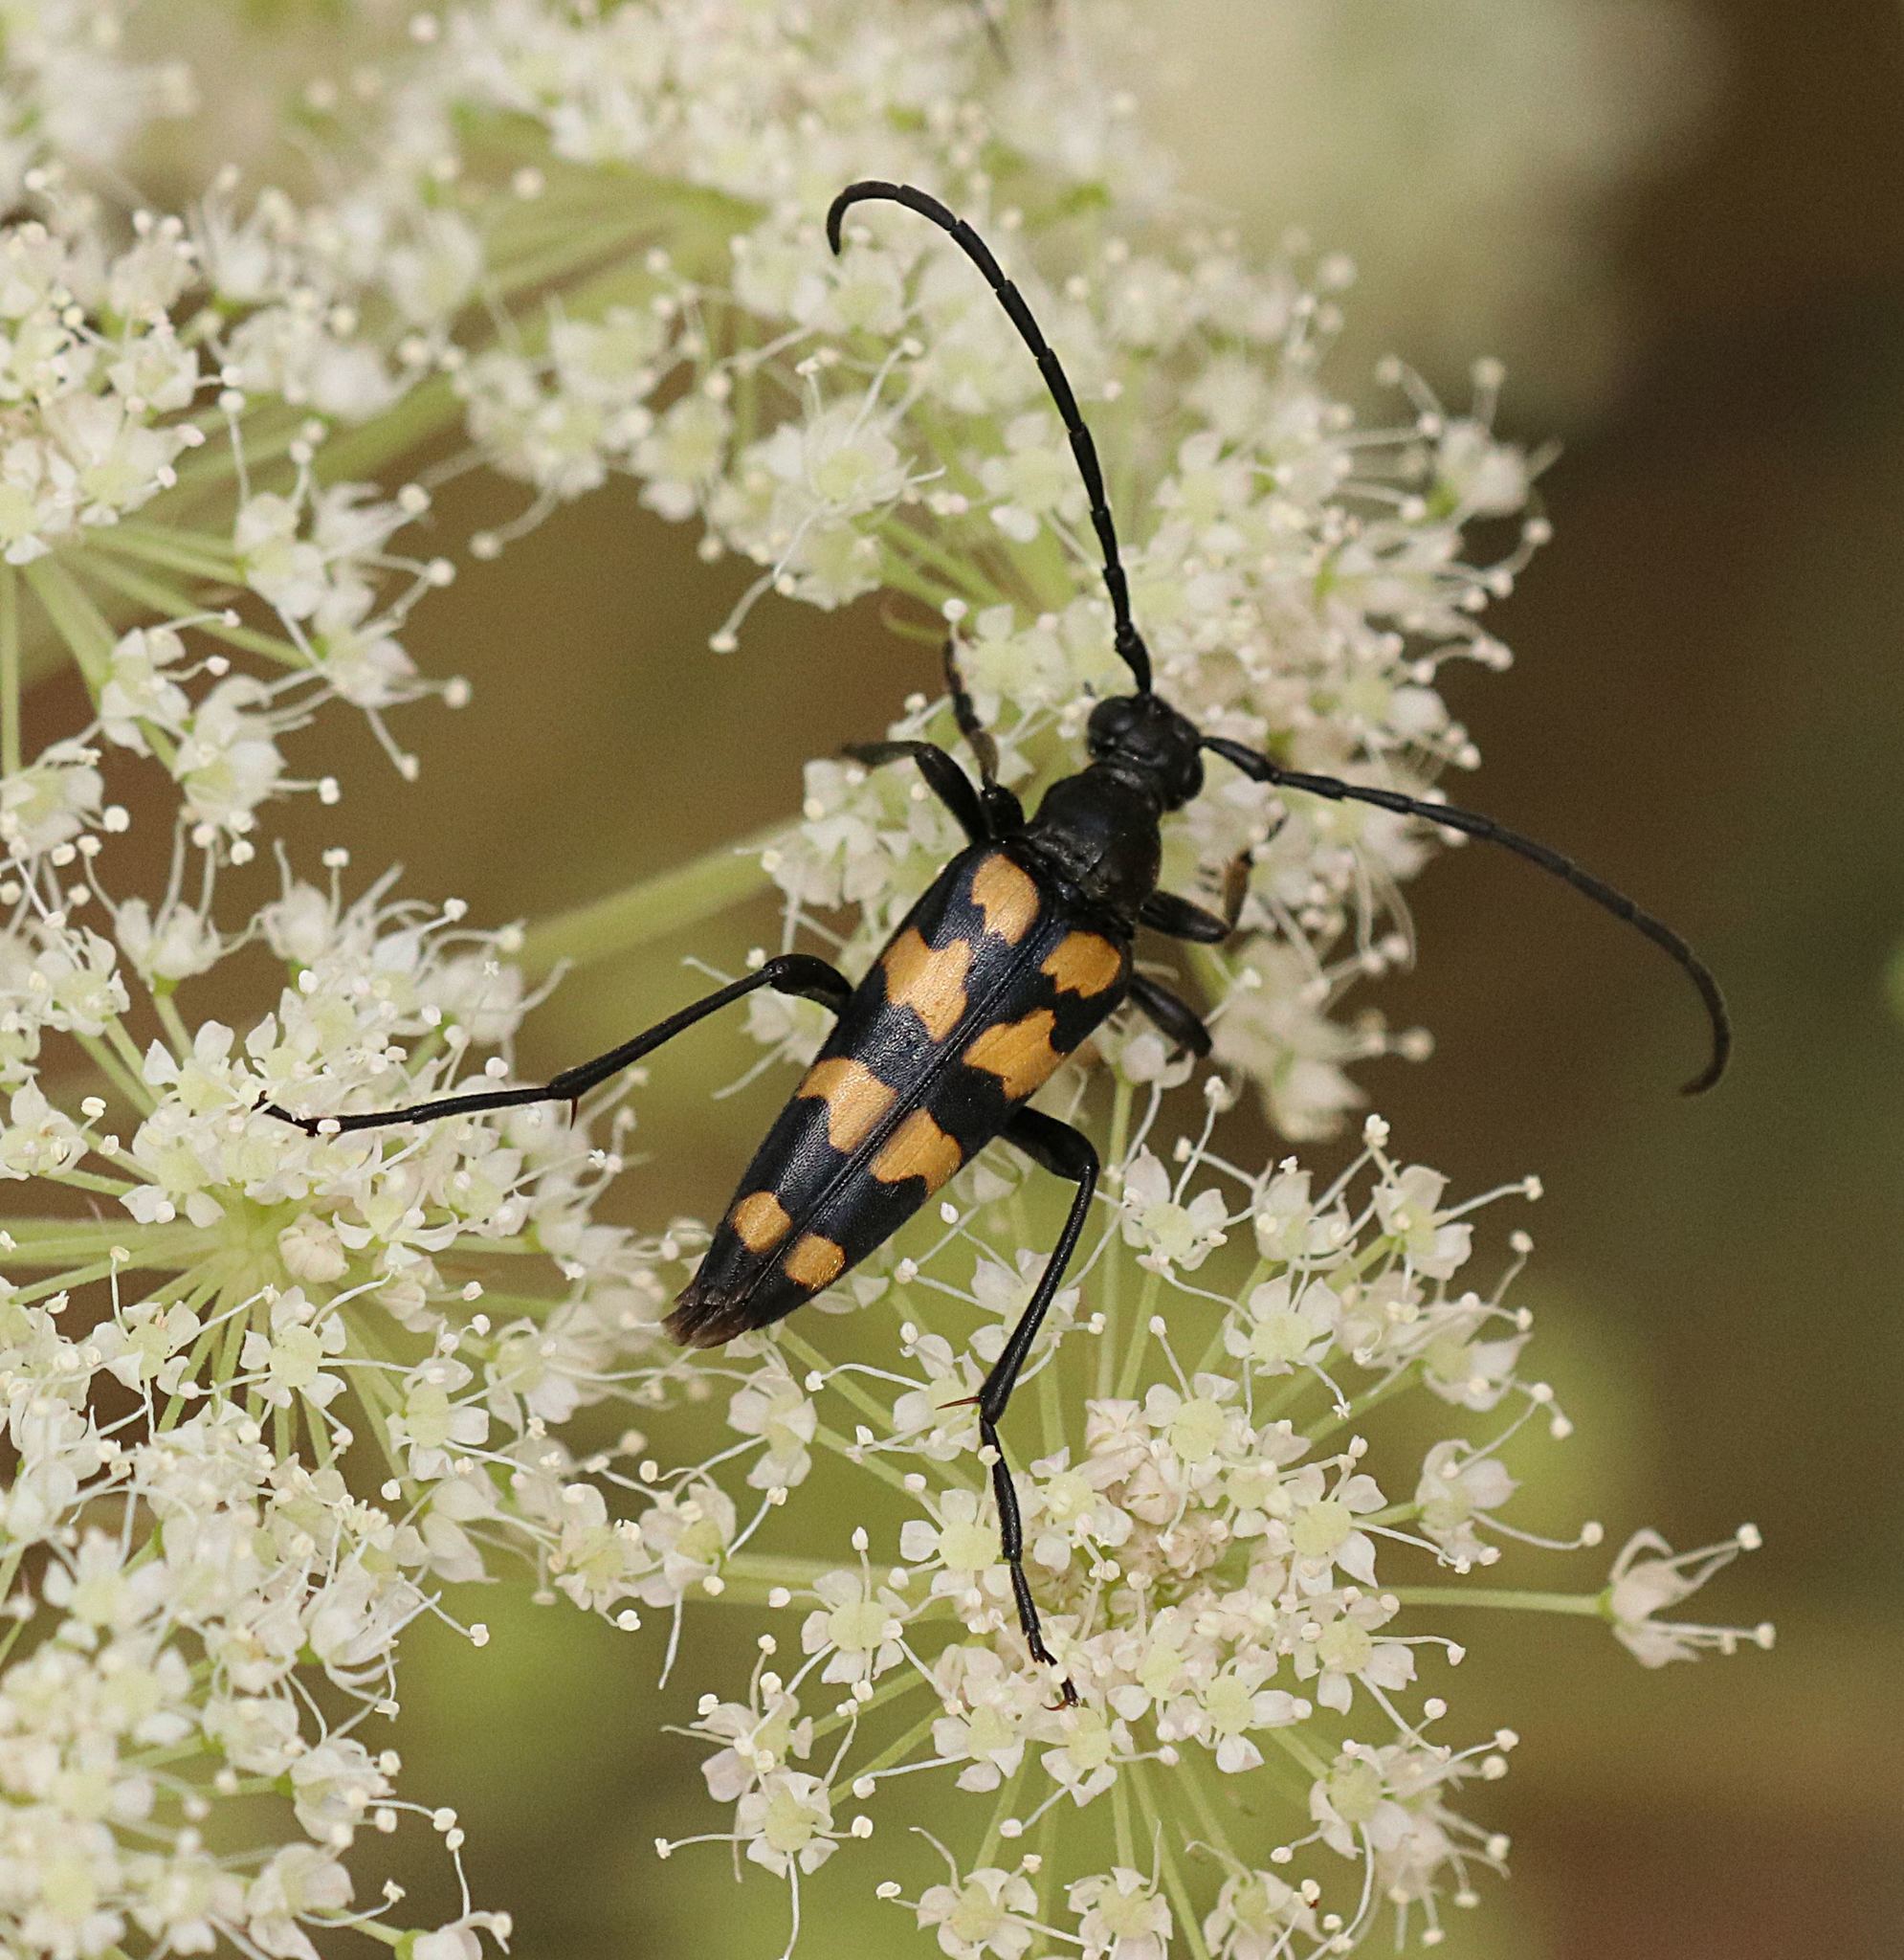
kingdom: Animalia
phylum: Arthropoda
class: Insecta
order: Coleoptera
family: Cerambycidae
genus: Leptura
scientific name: Leptura quadrifasciata
